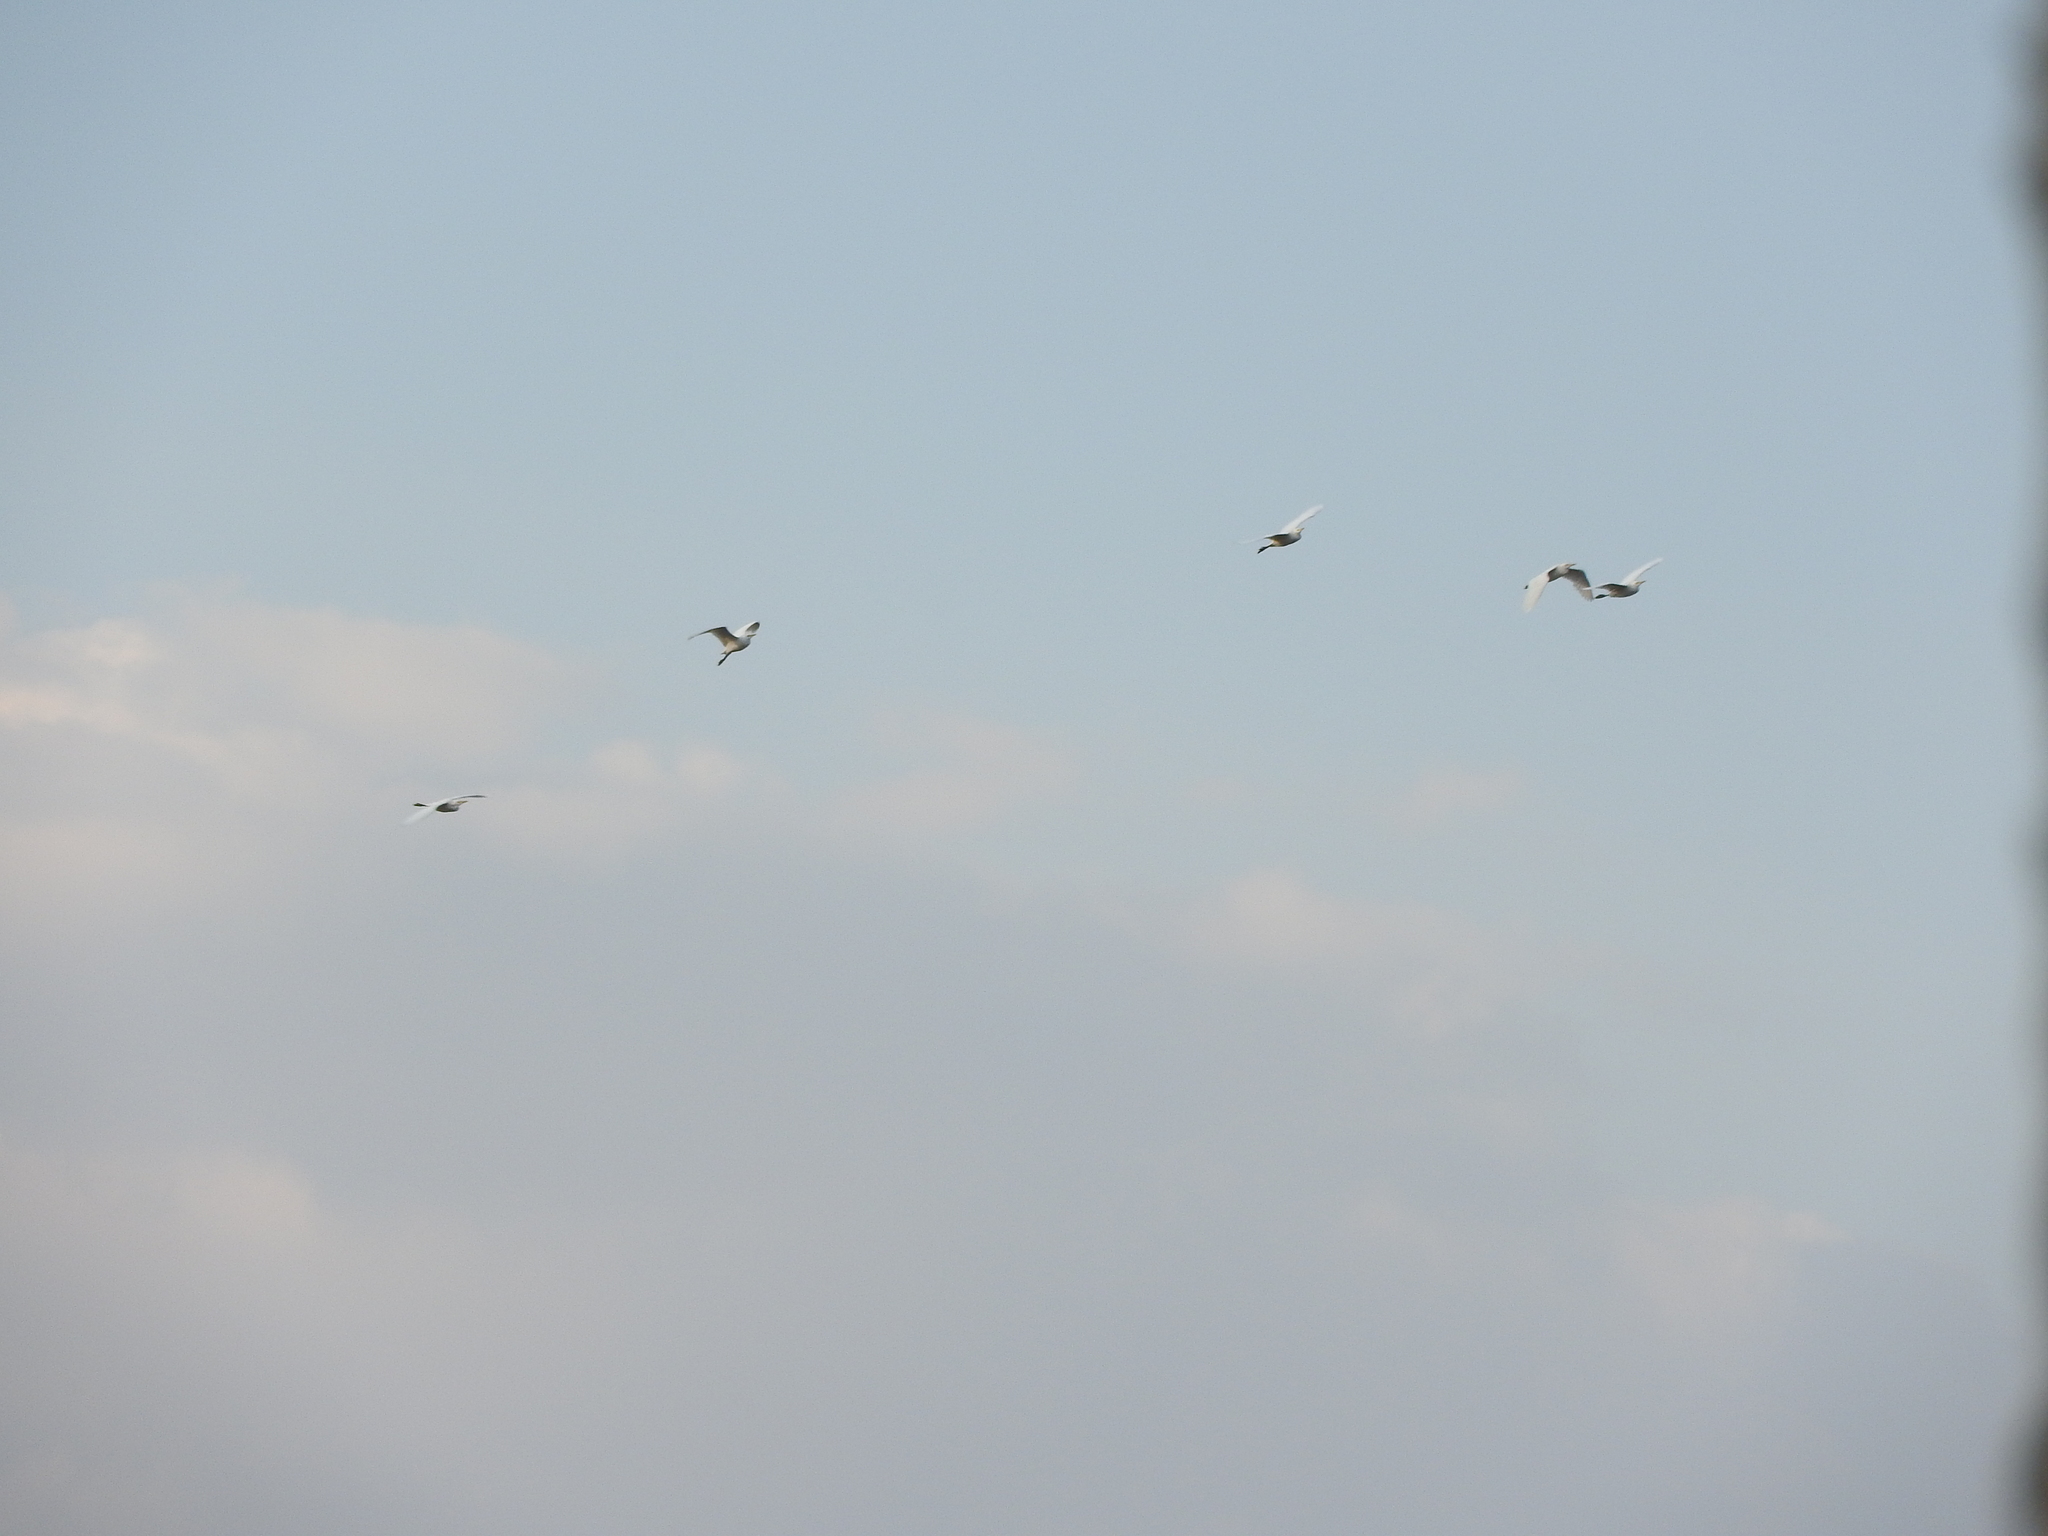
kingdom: Animalia
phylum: Chordata
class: Aves
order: Pelecaniformes
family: Ardeidae
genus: Bubulcus
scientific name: Bubulcus ibis
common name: Cattle egret
